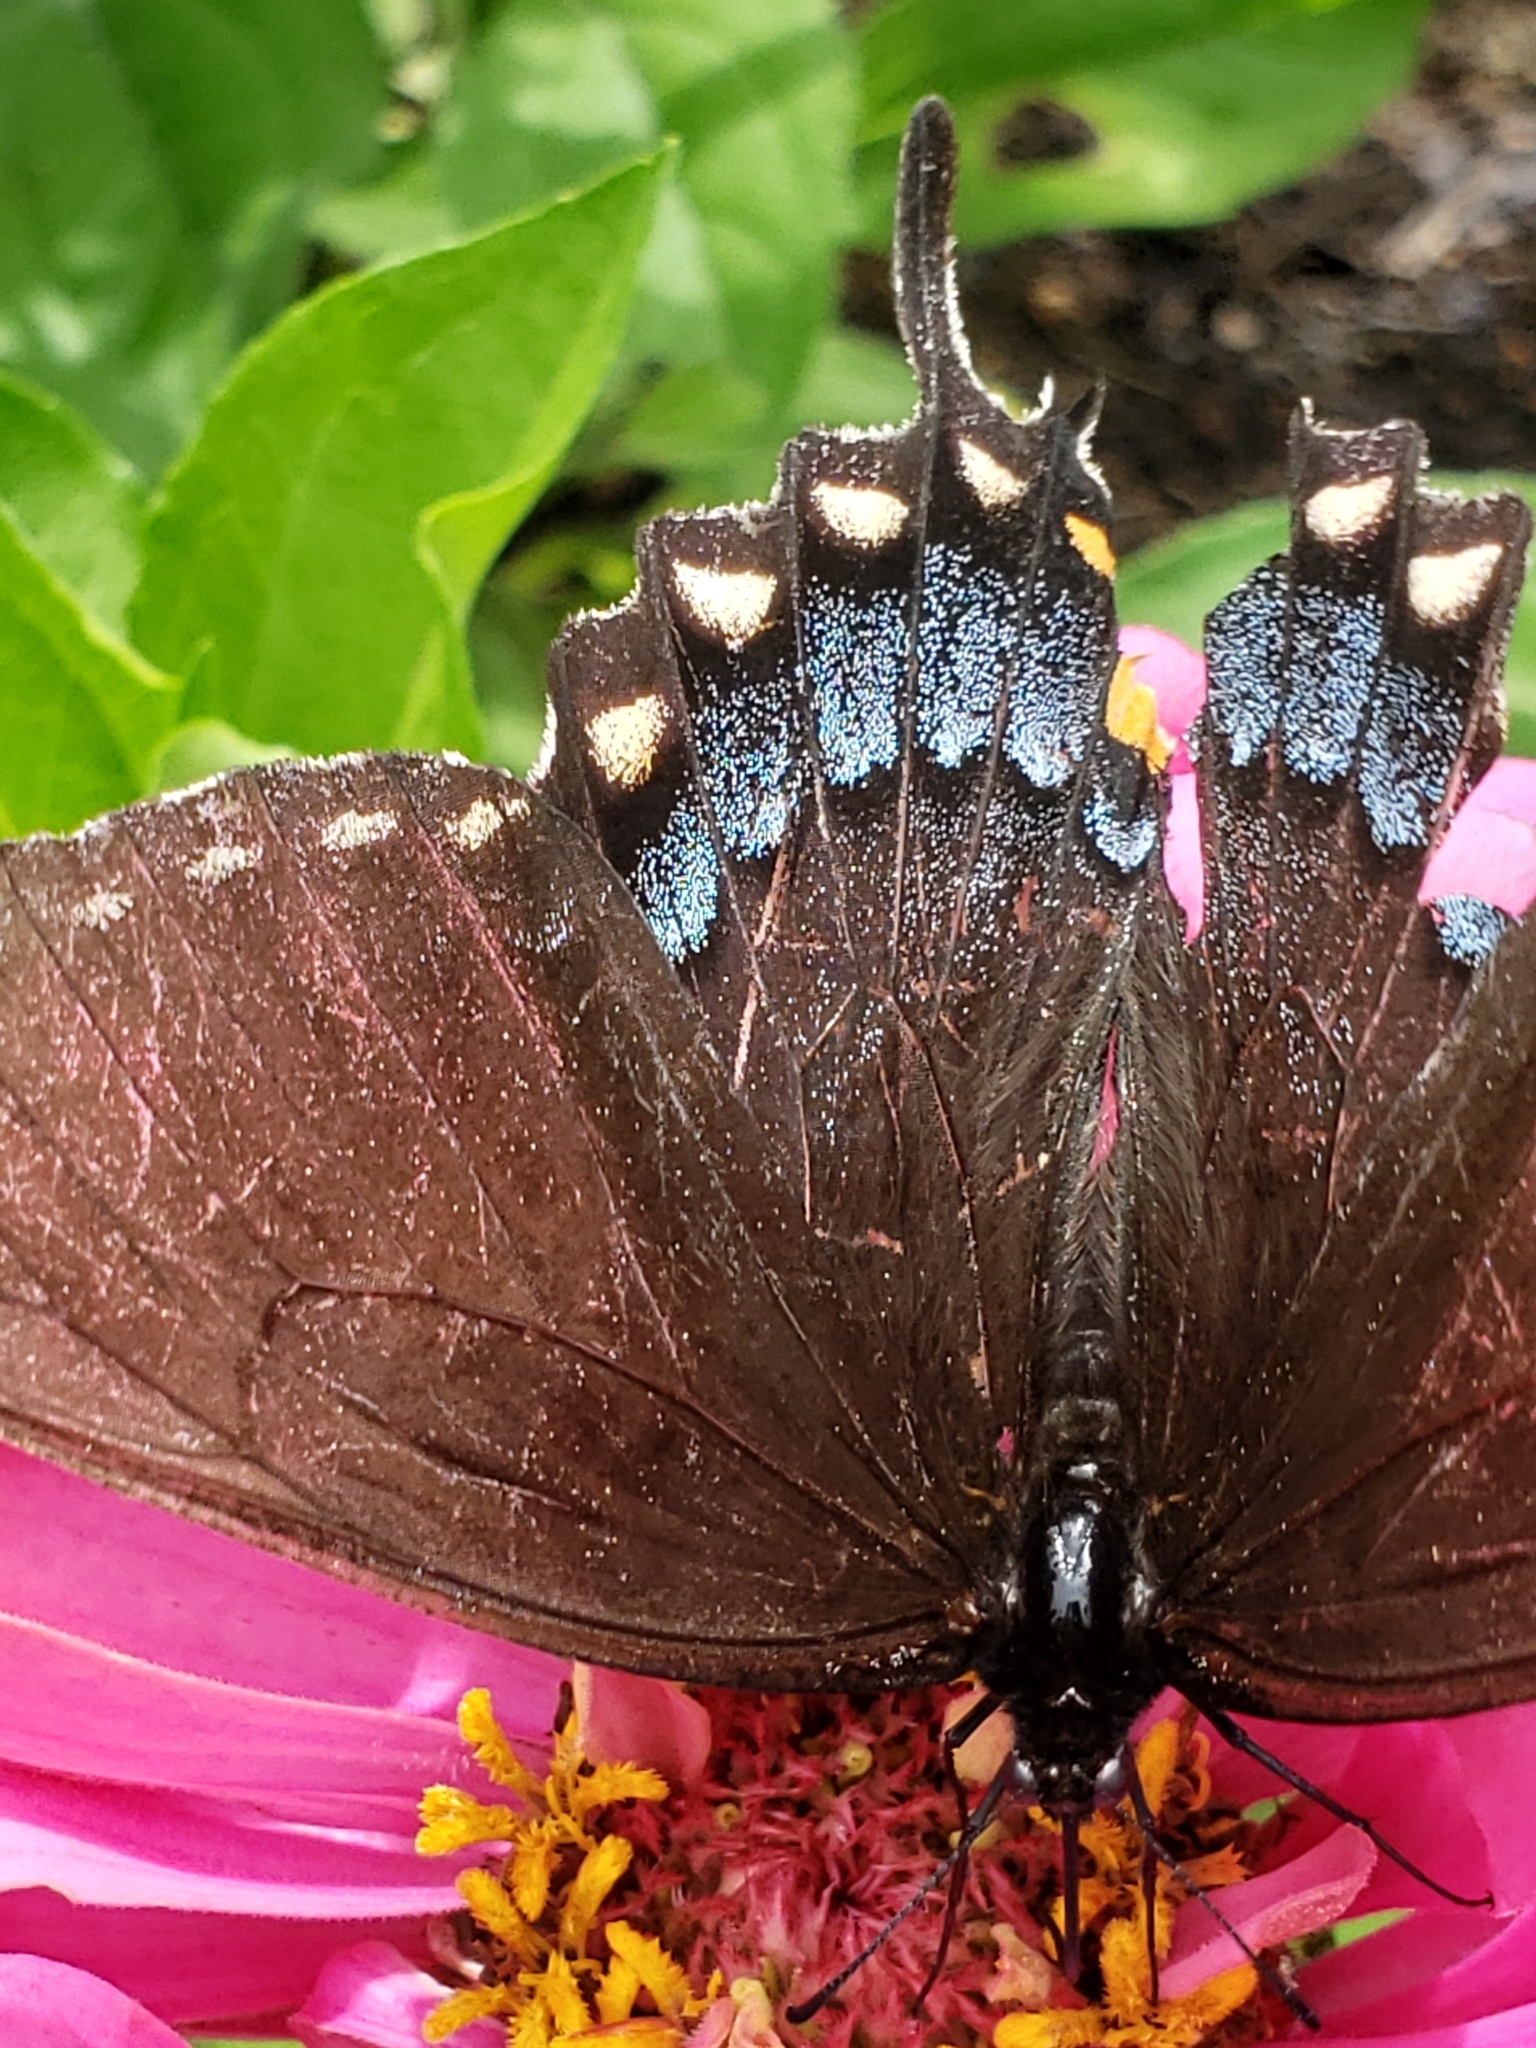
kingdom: Animalia
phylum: Arthropoda
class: Insecta
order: Lepidoptera
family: Papilionidae
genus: Papilio
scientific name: Papilio glaucus
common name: Tiger swallowtail
